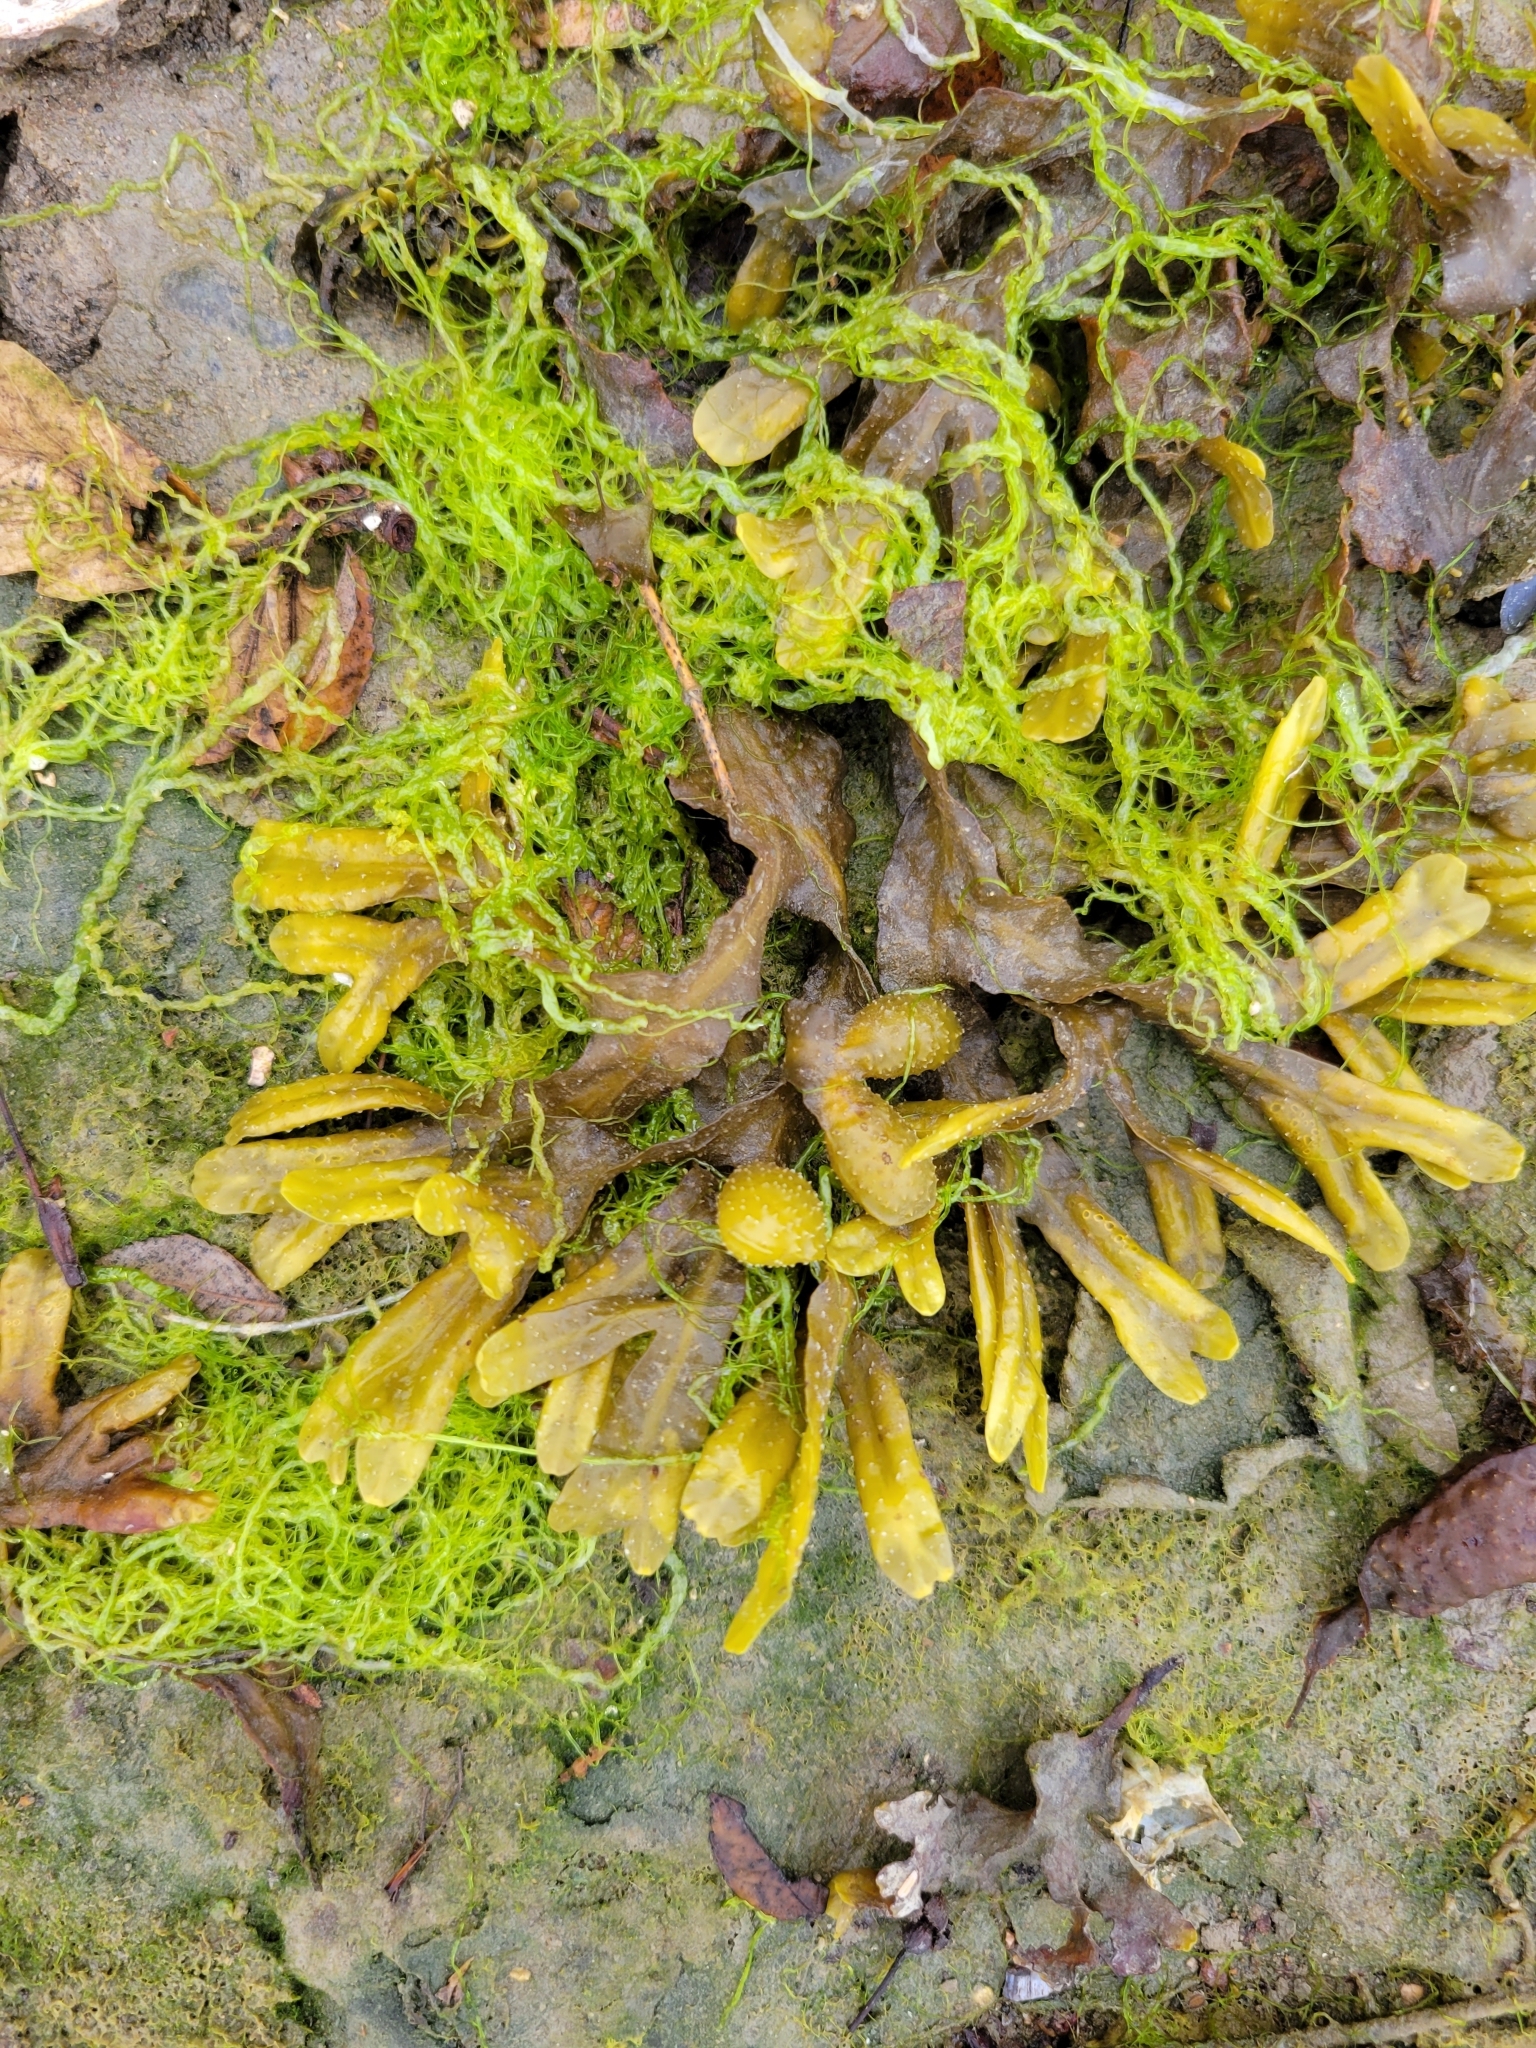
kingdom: Chromista
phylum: Ochrophyta
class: Phaeophyceae
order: Fucales
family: Fucaceae
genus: Fucus
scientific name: Fucus distichus
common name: Rockweed
